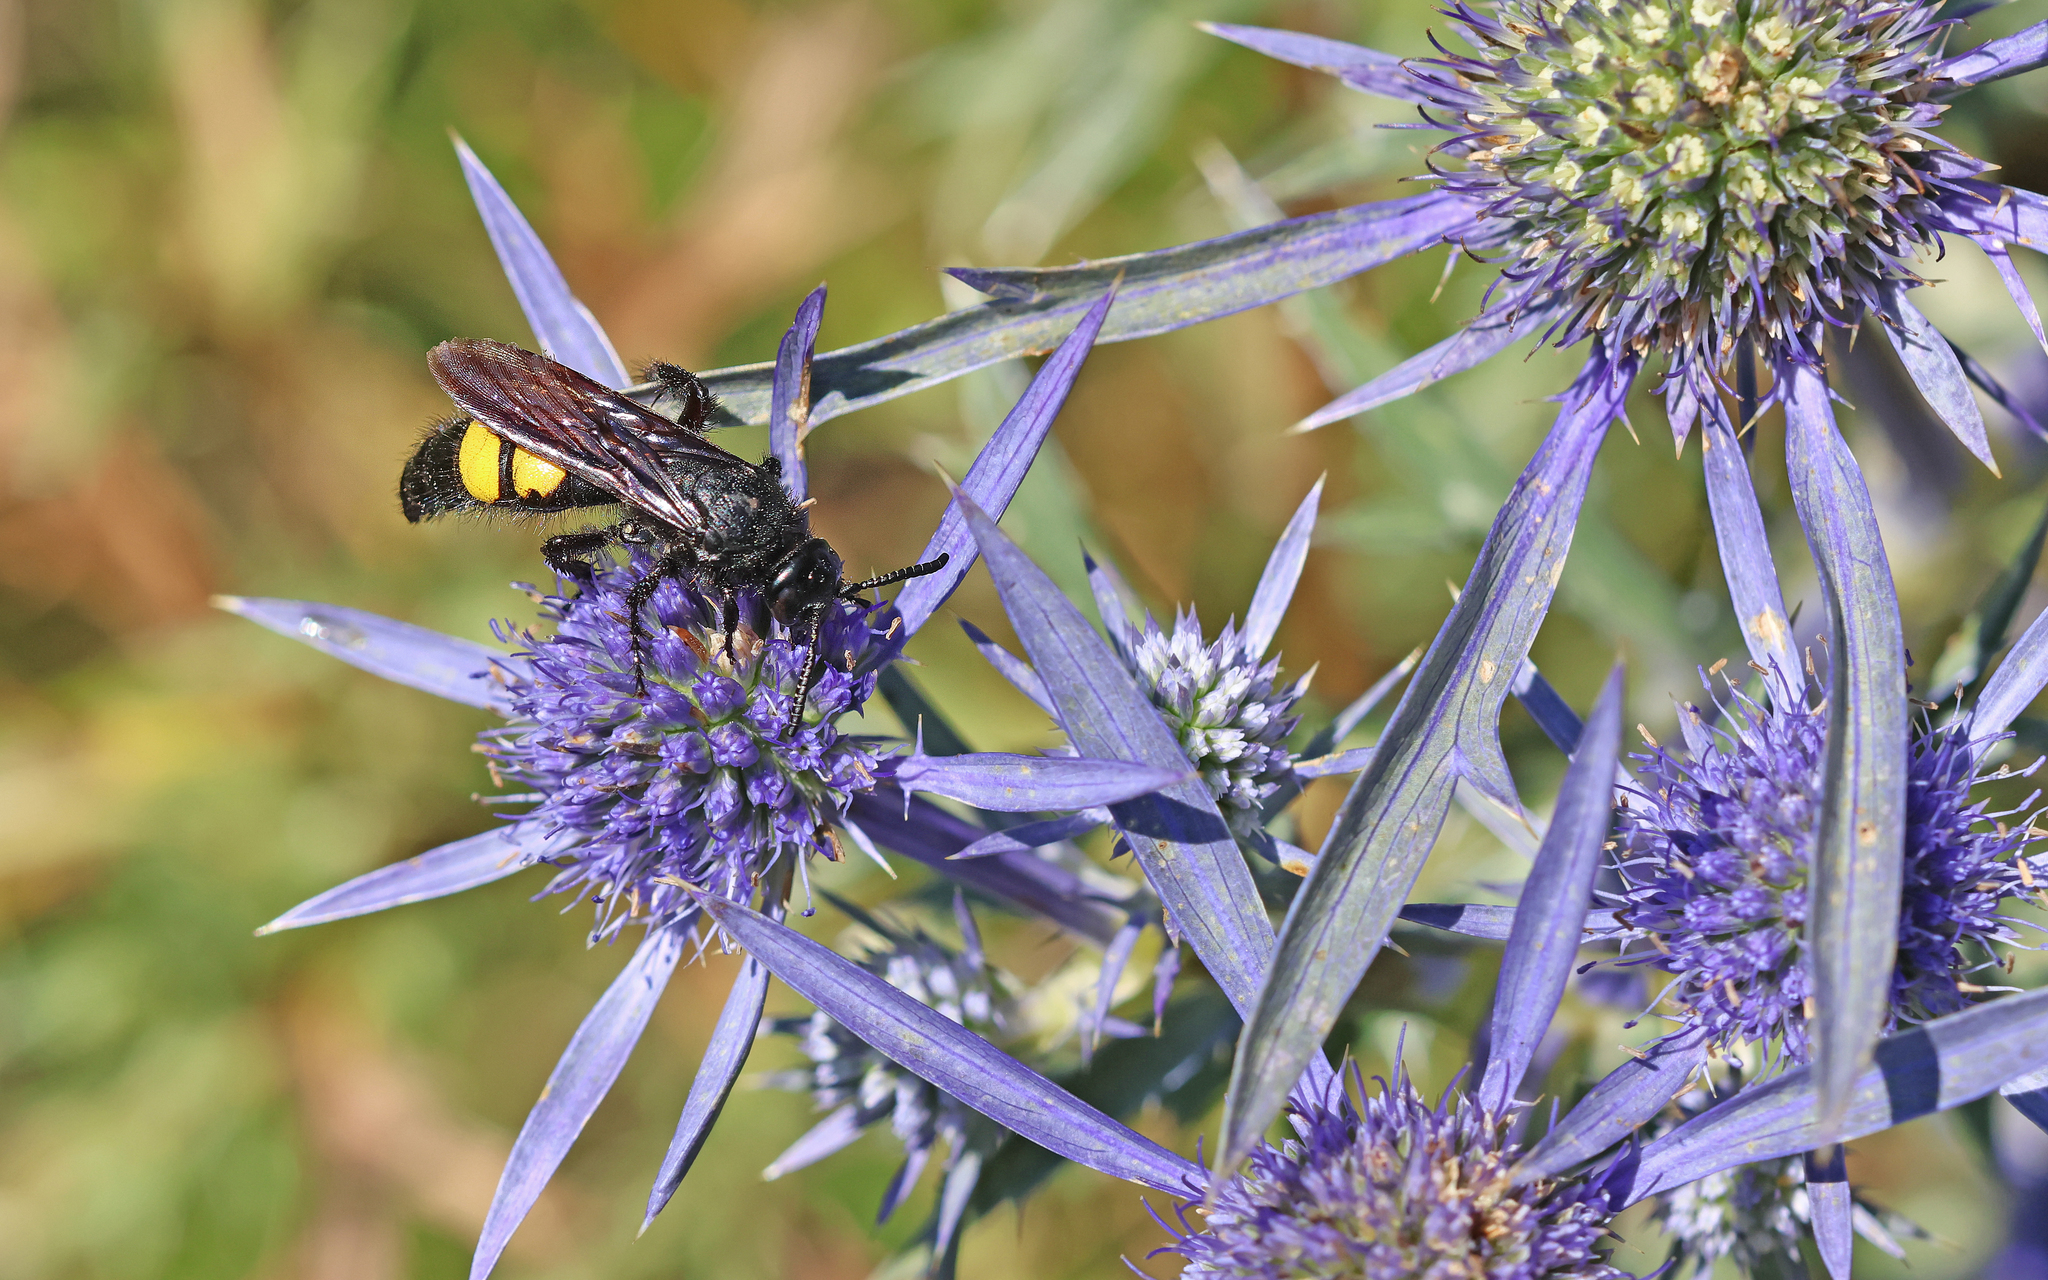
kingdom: Animalia
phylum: Arthropoda
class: Insecta
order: Hymenoptera
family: Scoliidae
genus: Scolia
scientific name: Scolia hirta
